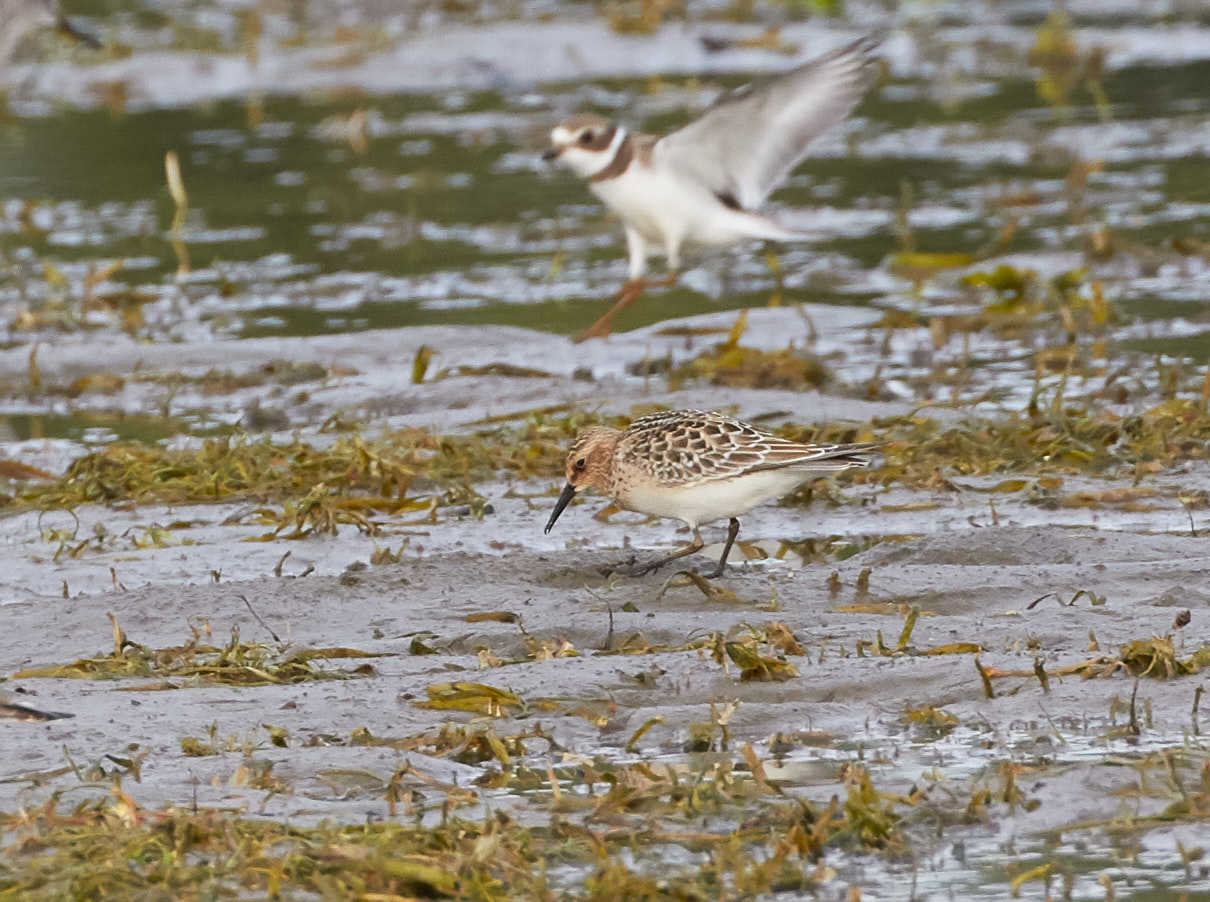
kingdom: Animalia
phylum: Chordata
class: Aves
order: Charadriiformes
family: Scolopacidae
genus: Calidris
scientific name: Calidris bairdii
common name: Baird's sandpiper
